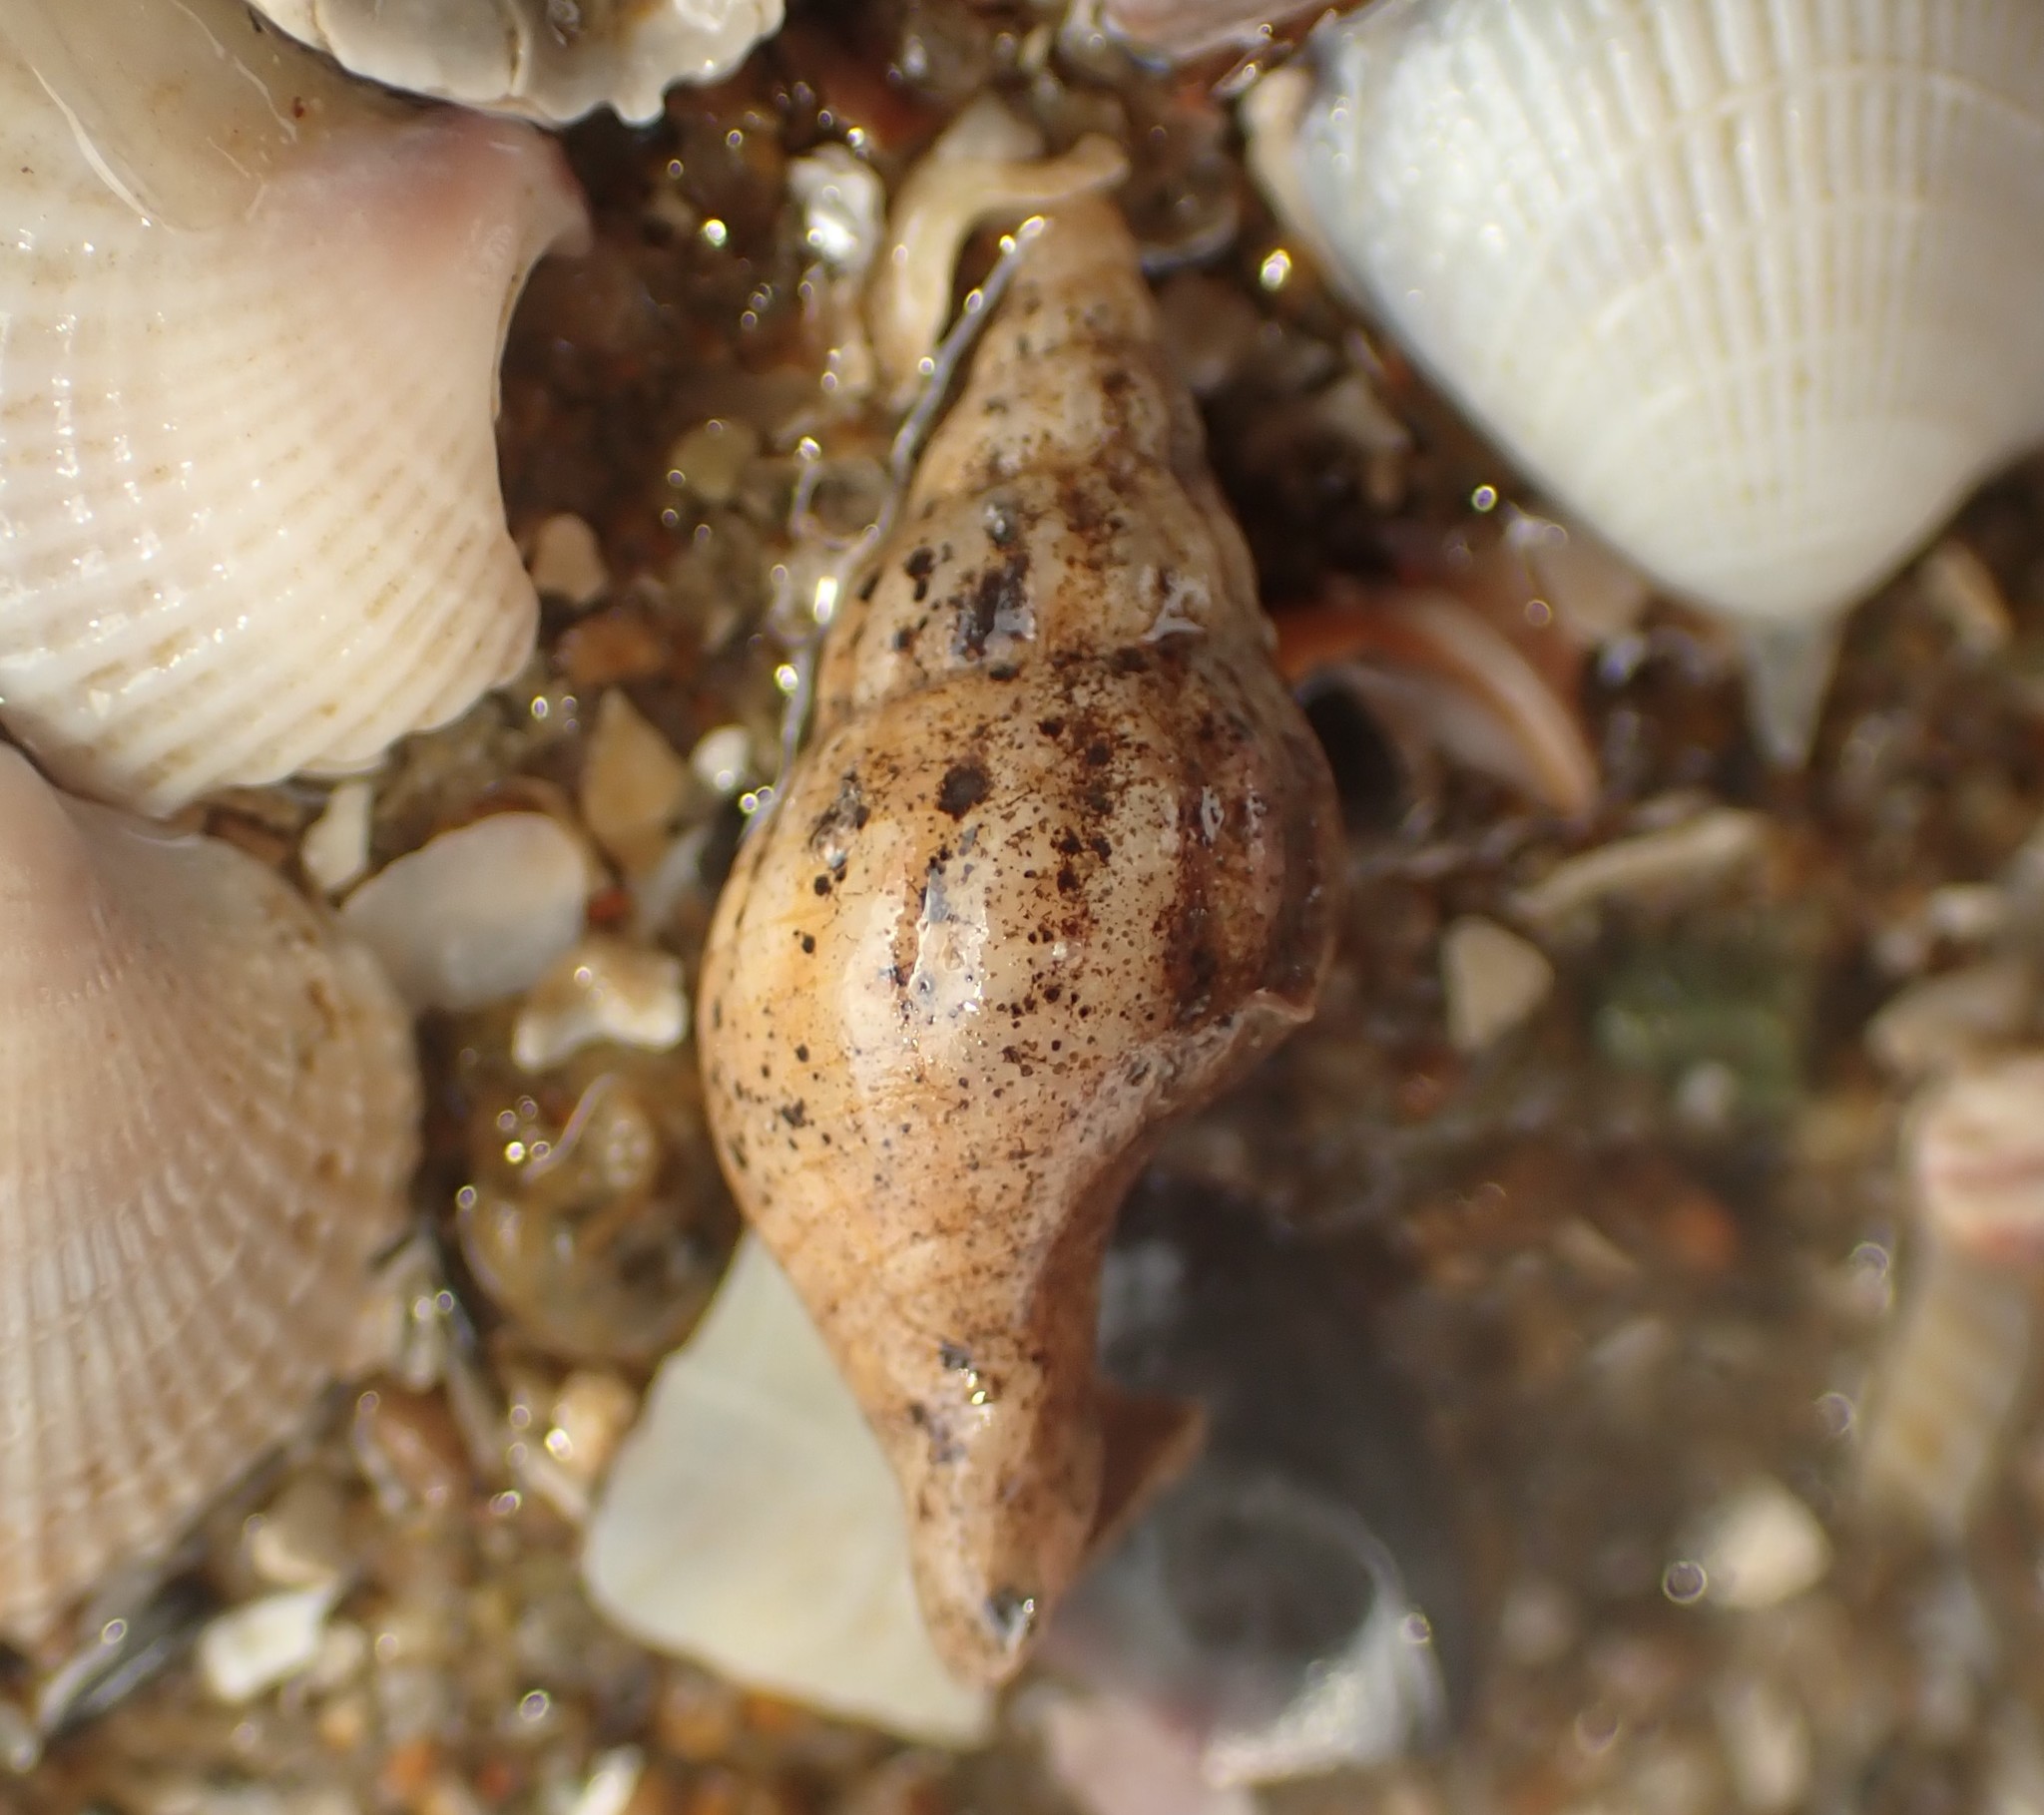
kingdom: Animalia
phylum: Mollusca
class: Gastropoda
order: Neogastropoda
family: Cominellidae
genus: Cominella
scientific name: Cominella accuminata
